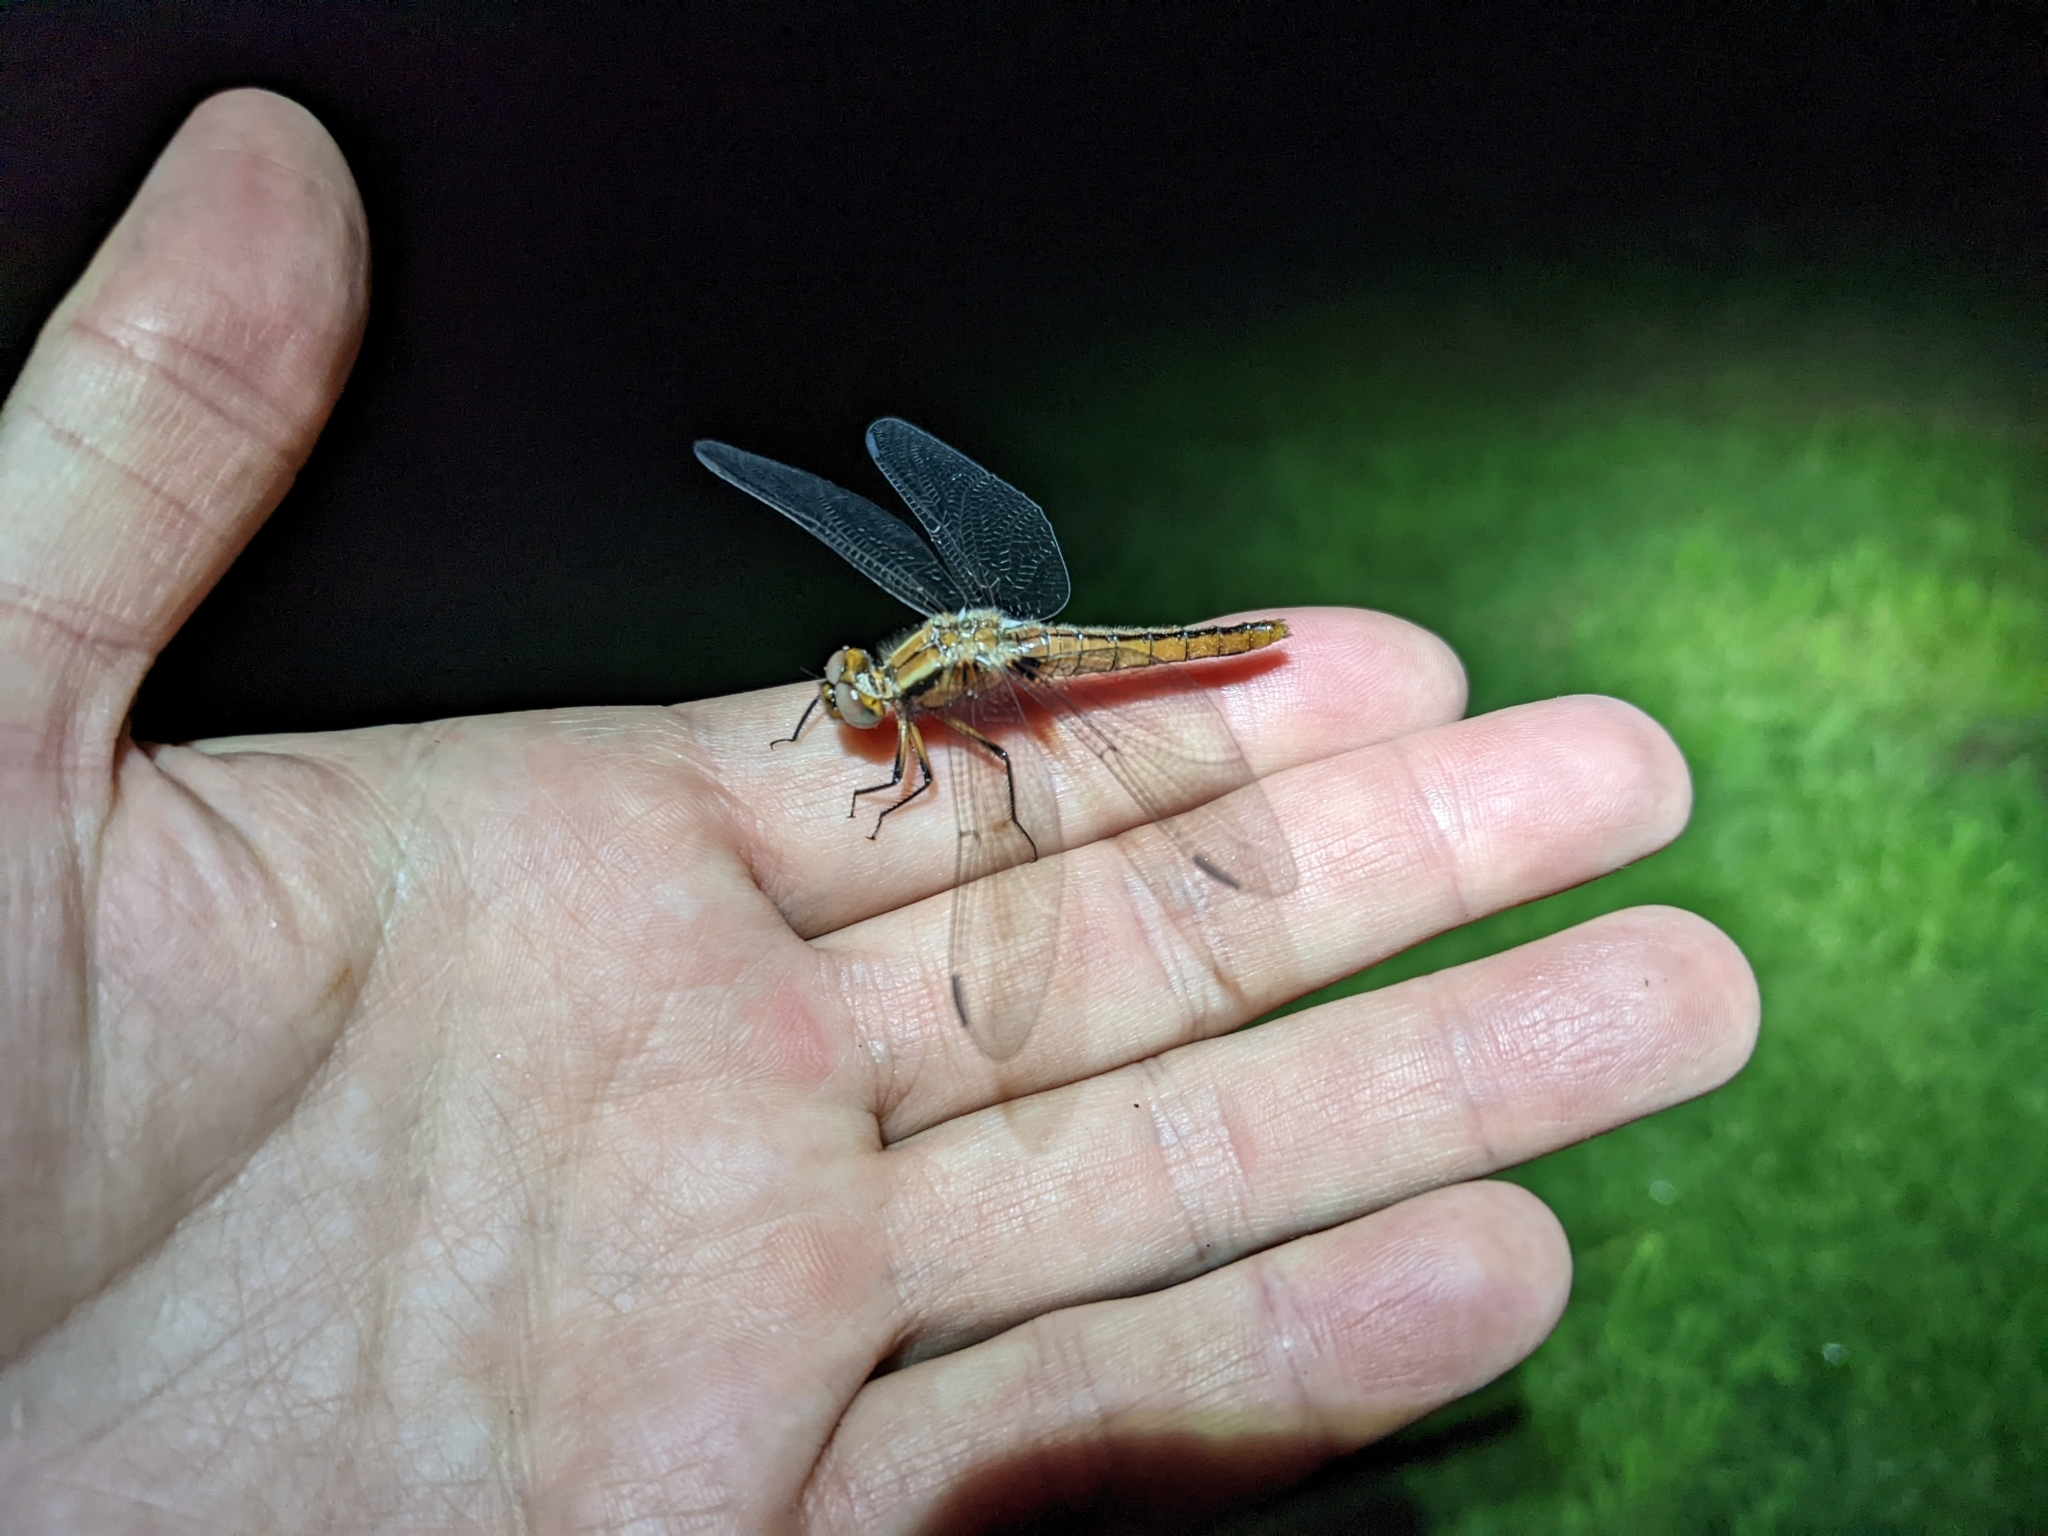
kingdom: Animalia
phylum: Arthropoda
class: Insecta
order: Odonata
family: Libellulidae
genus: Ladona
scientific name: Ladona julia
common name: Chalk-fronted corporal
